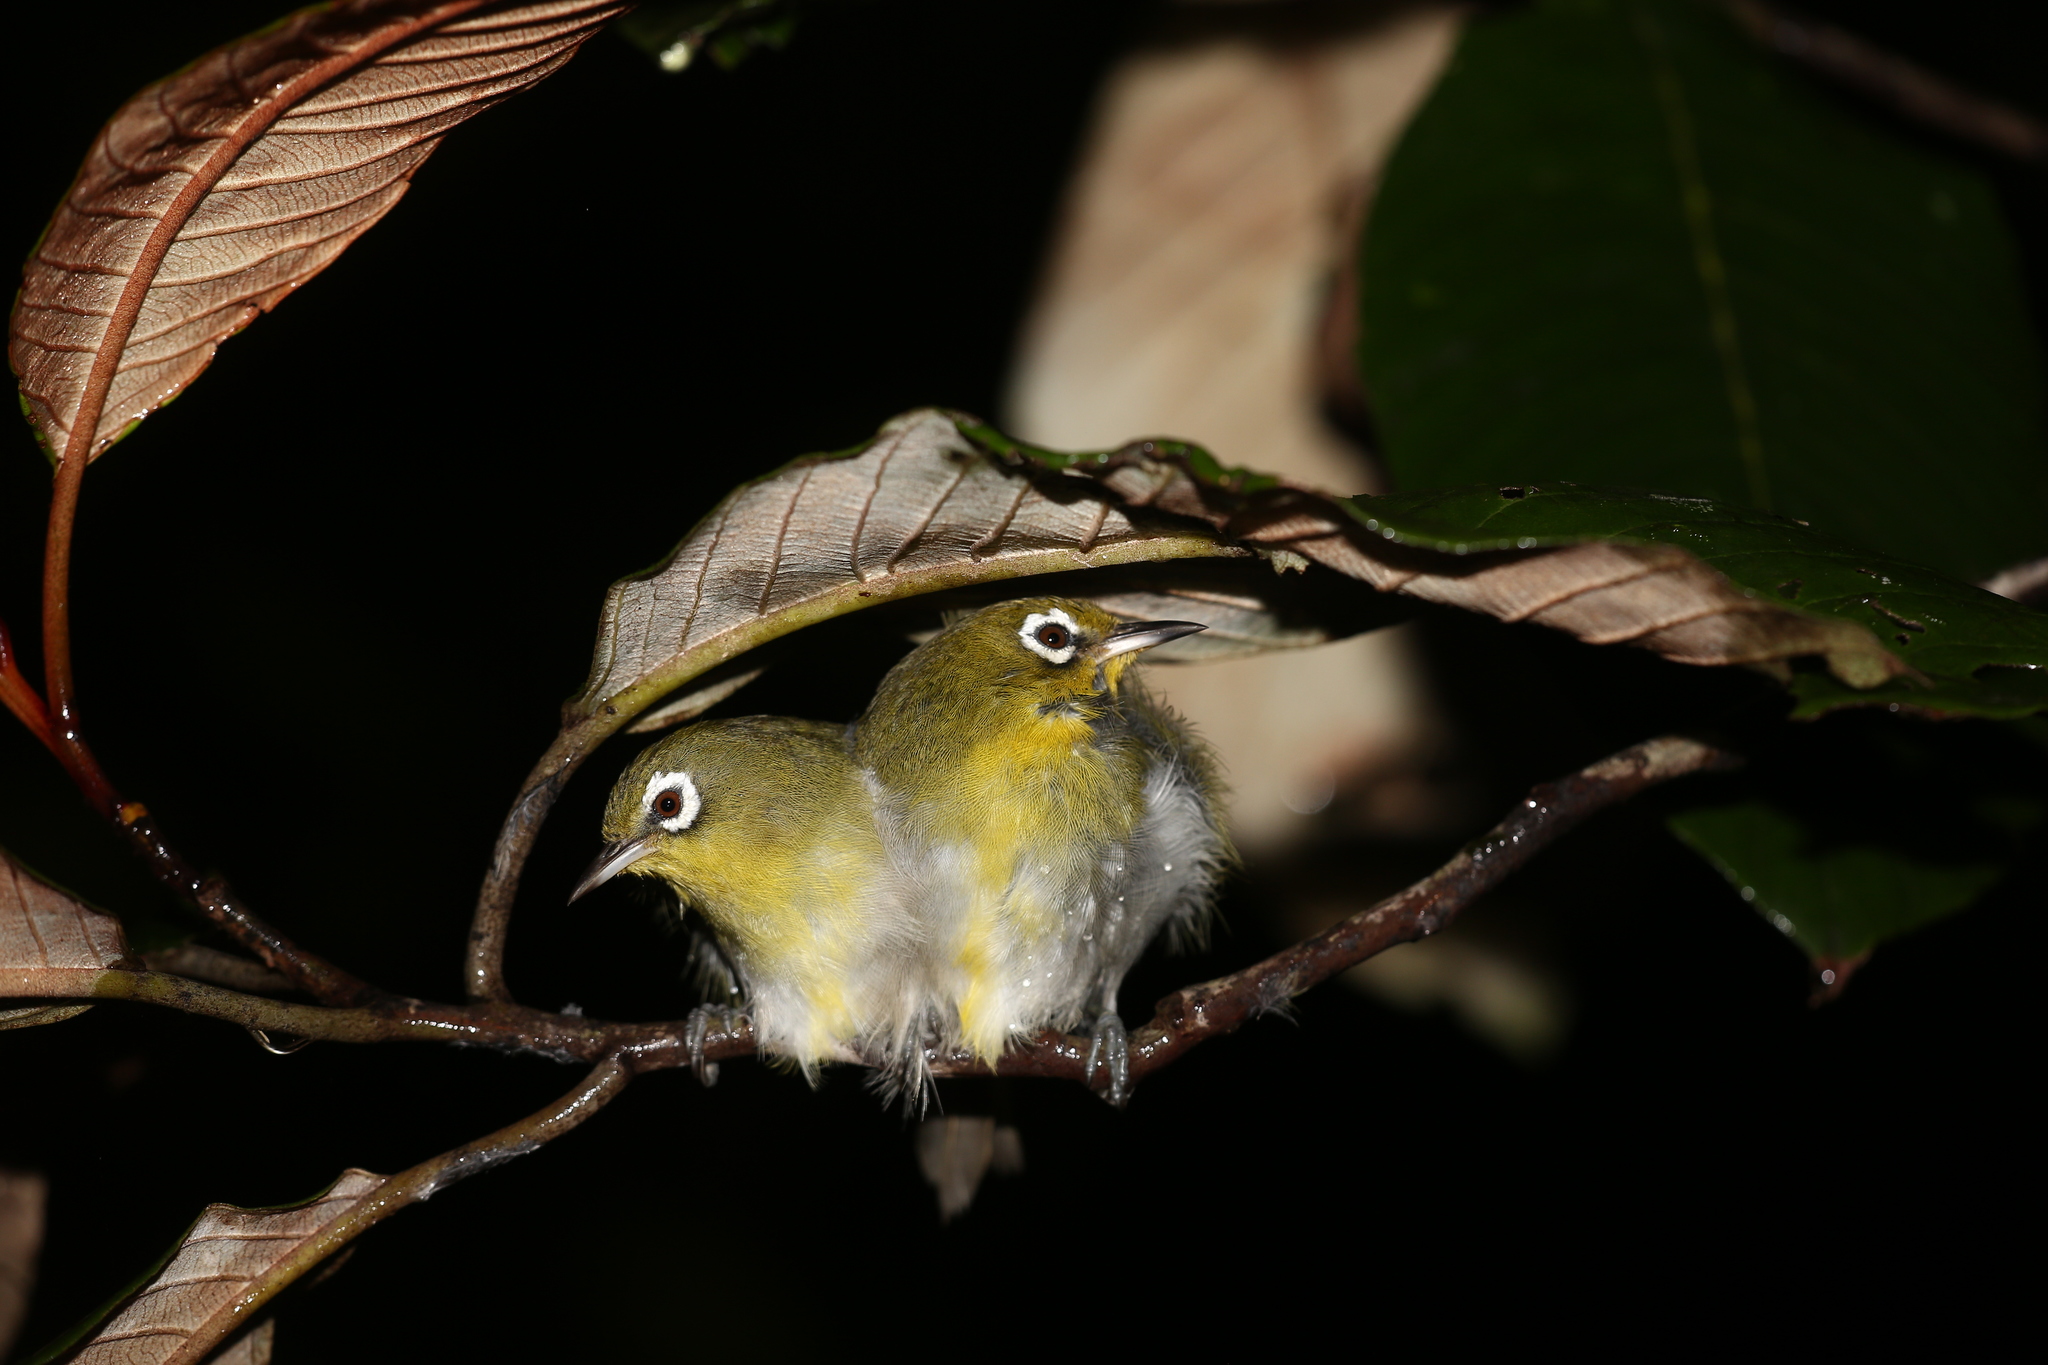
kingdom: Animalia
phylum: Chordata
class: Aves
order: Passeriformes
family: Zosteropidae
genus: Zosterops
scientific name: Zosterops xanthochroa
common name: Green-backed white-eye
